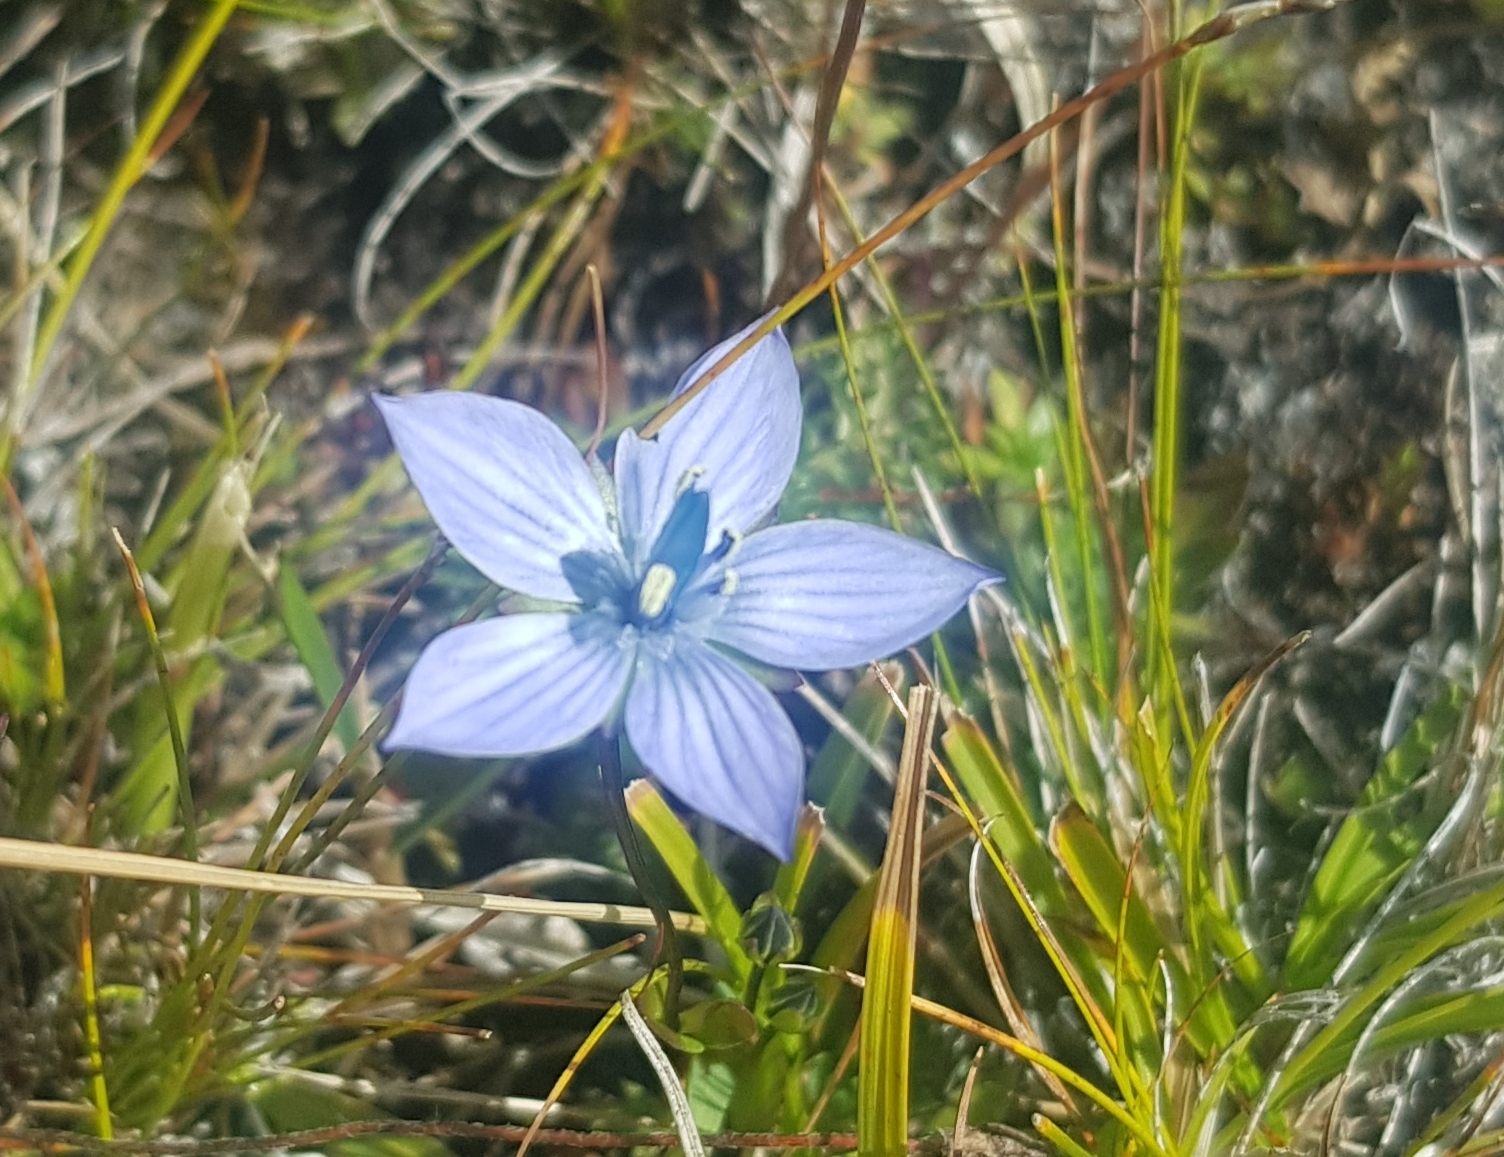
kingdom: Plantae
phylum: Tracheophyta
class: Magnoliopsida
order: Gentianales
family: Gentianaceae
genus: Lomatogonium
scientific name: Lomatogonium carinthiacum
